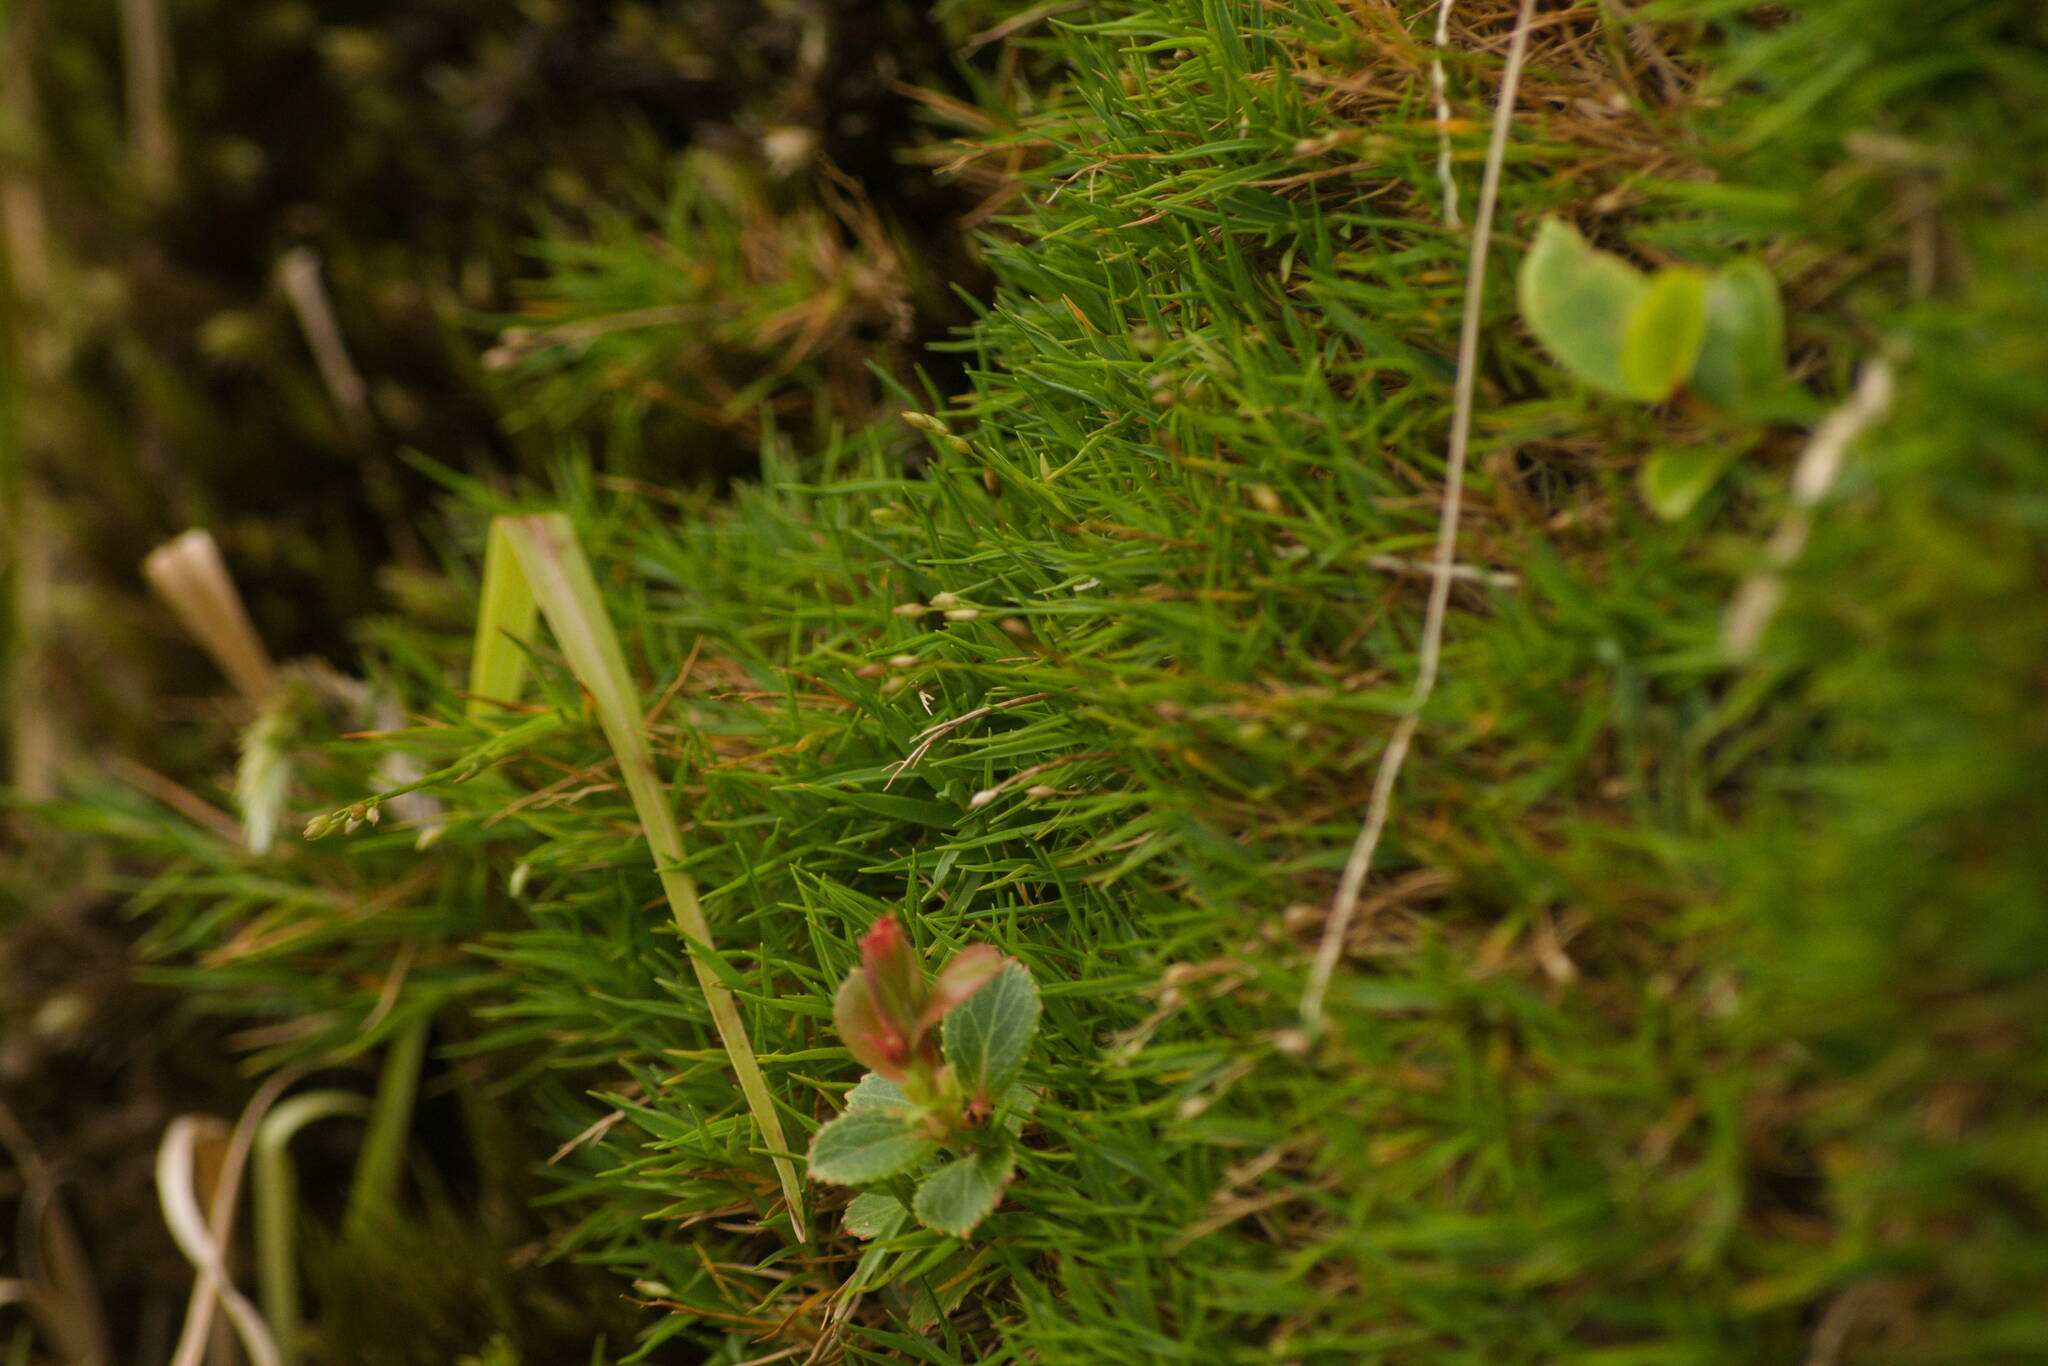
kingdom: Plantae
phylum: Tracheophyta
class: Liliopsida
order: Poales
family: Poaceae
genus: Dichanthelium
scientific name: Dichanthelium koolauense
